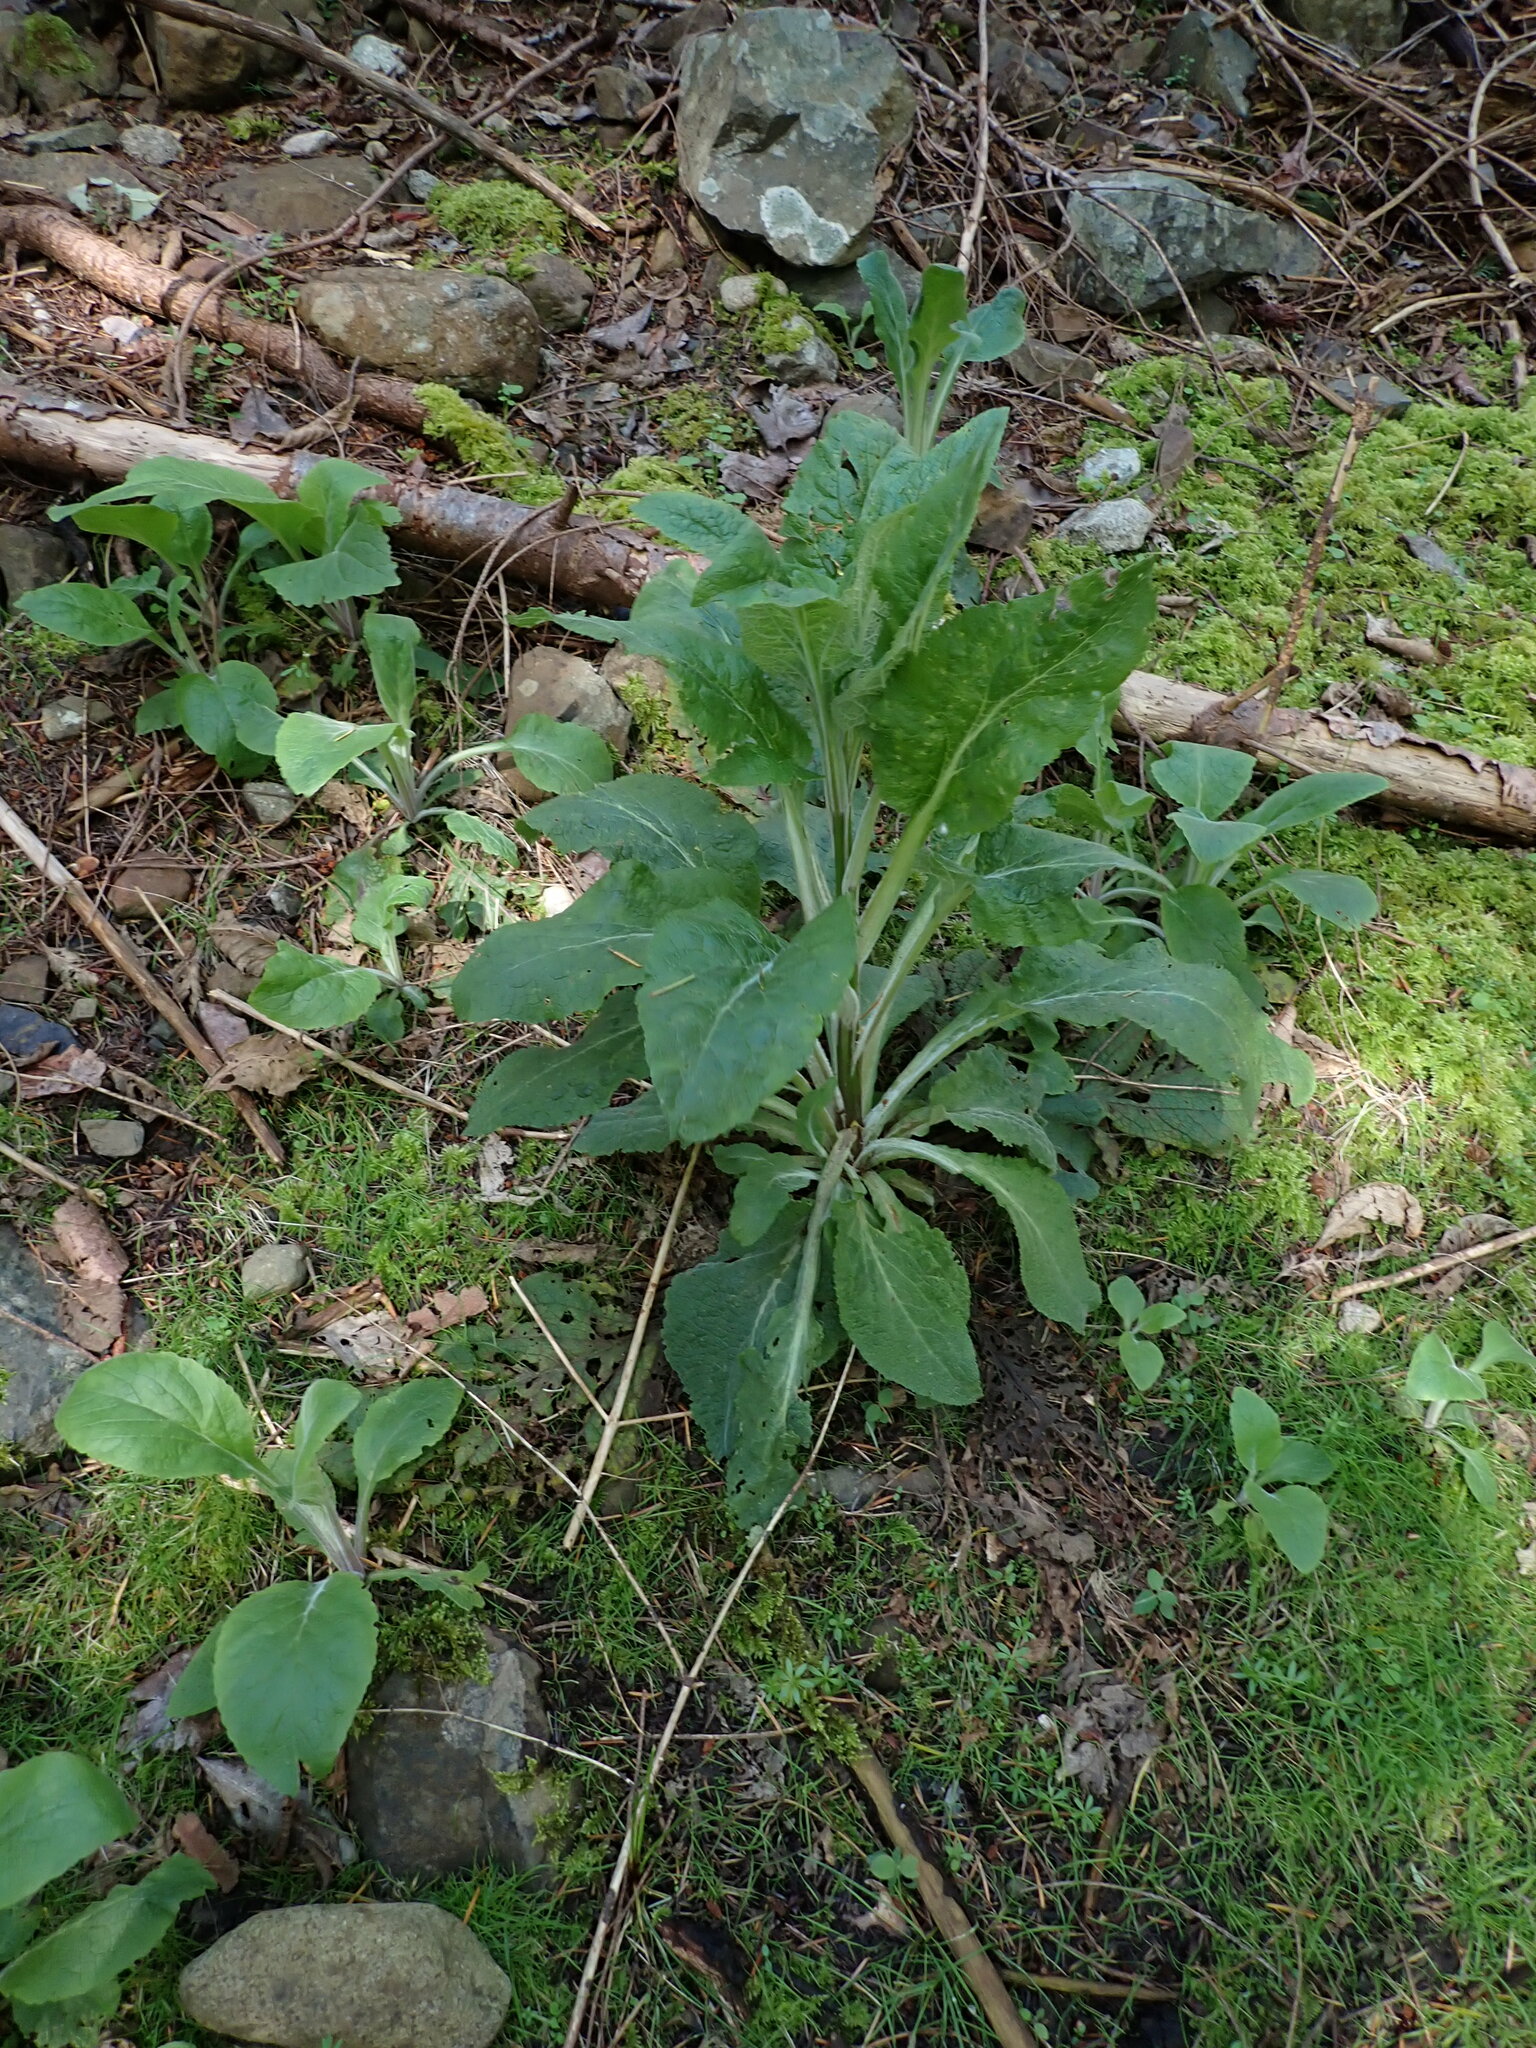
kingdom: Plantae
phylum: Tracheophyta
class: Magnoliopsida
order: Lamiales
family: Plantaginaceae
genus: Digitalis
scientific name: Digitalis purpurea
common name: Foxglove
